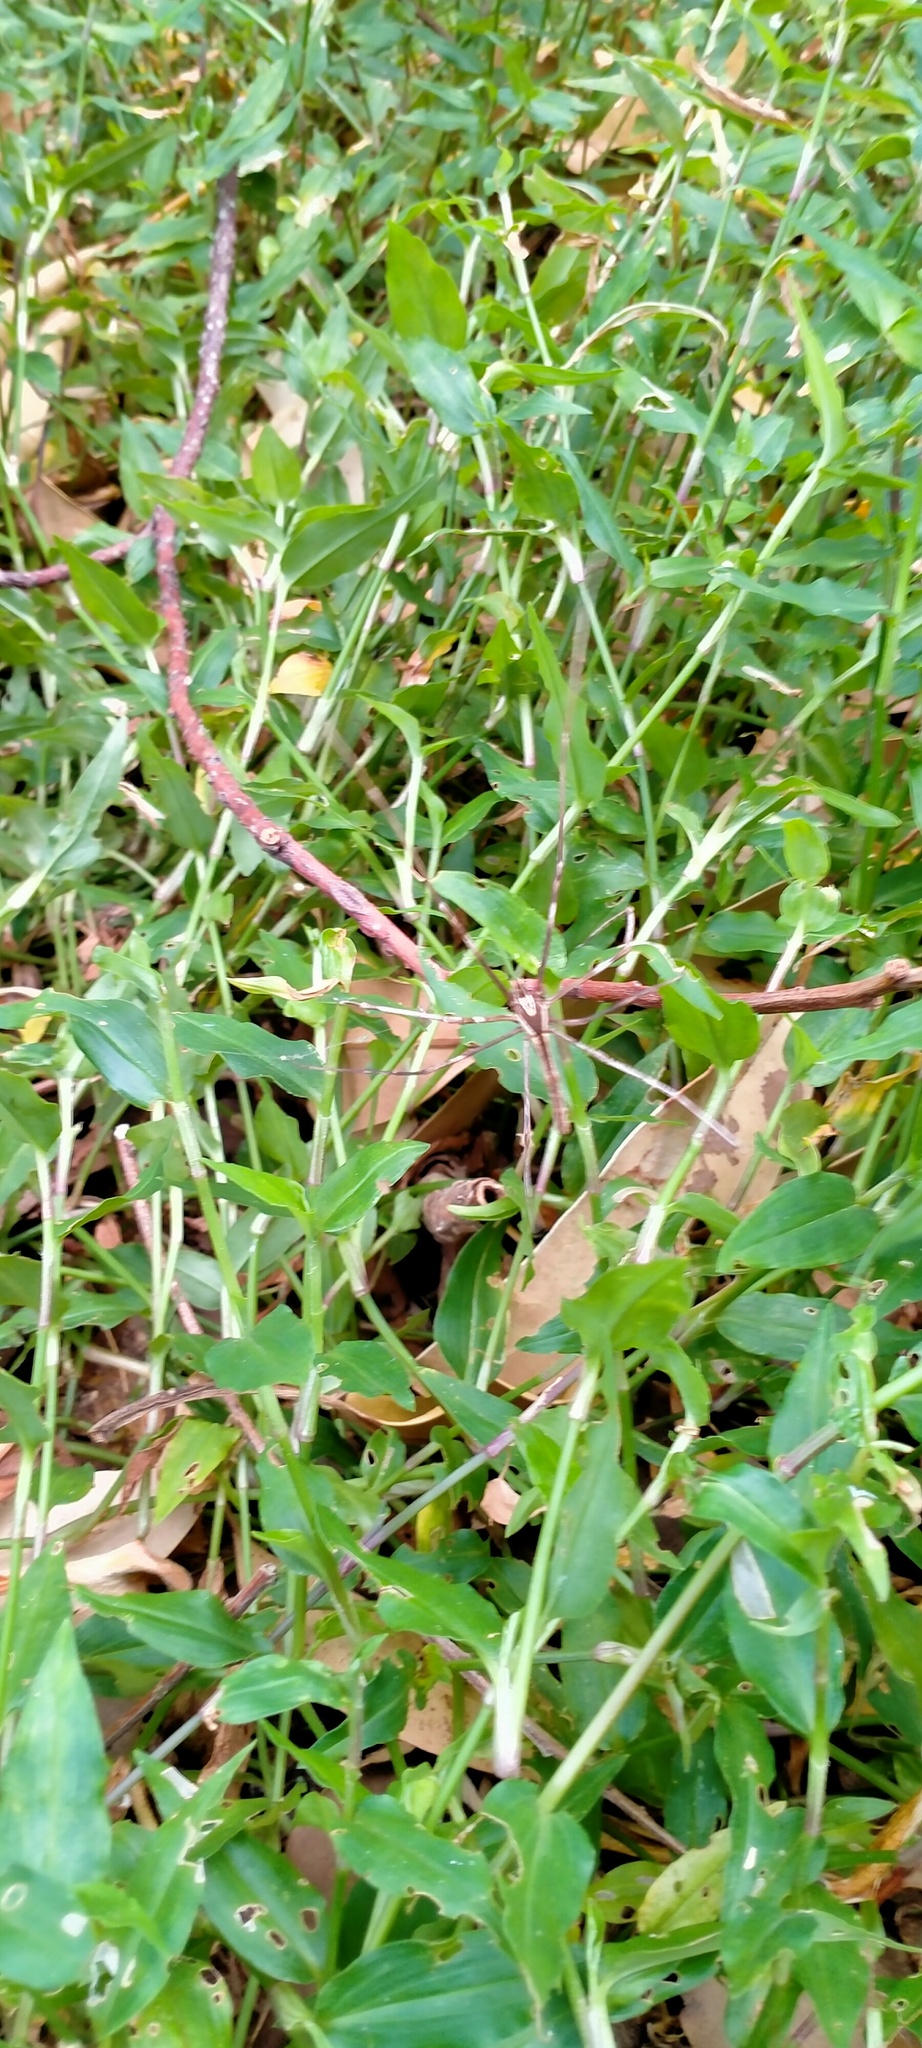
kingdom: Animalia
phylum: Arthropoda
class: Arachnida
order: Araneae
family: Deinopidae
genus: Deinopis
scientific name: Deinopis subrufa
